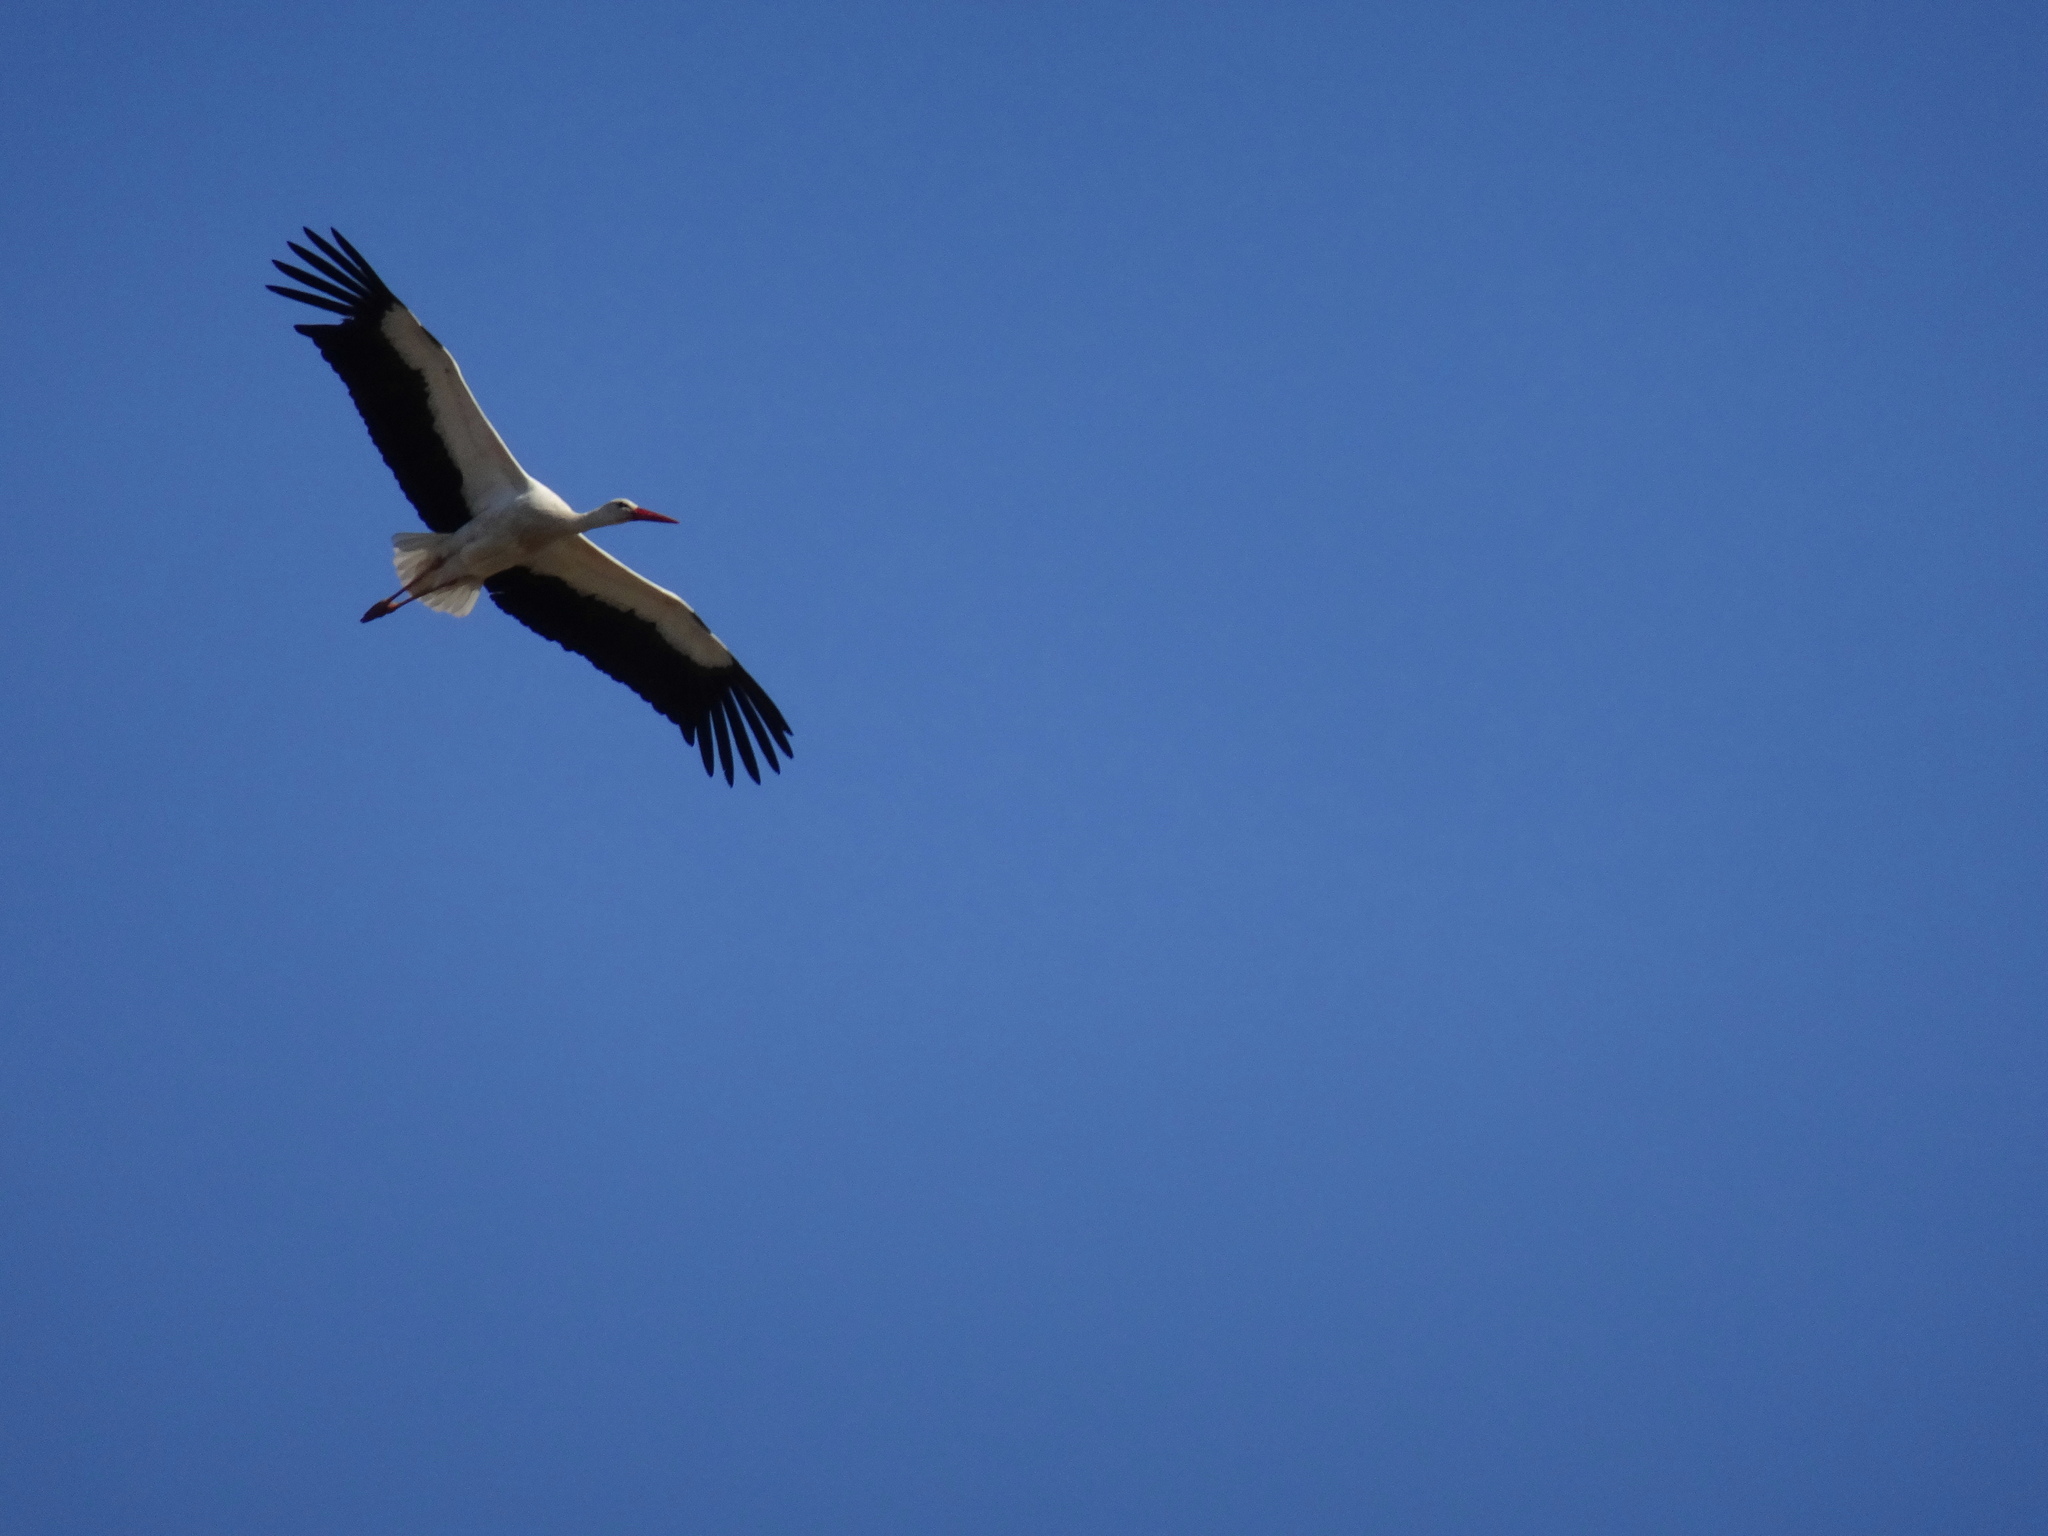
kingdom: Animalia
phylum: Chordata
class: Aves
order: Ciconiiformes
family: Ciconiidae
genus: Ciconia
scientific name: Ciconia ciconia
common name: White stork
